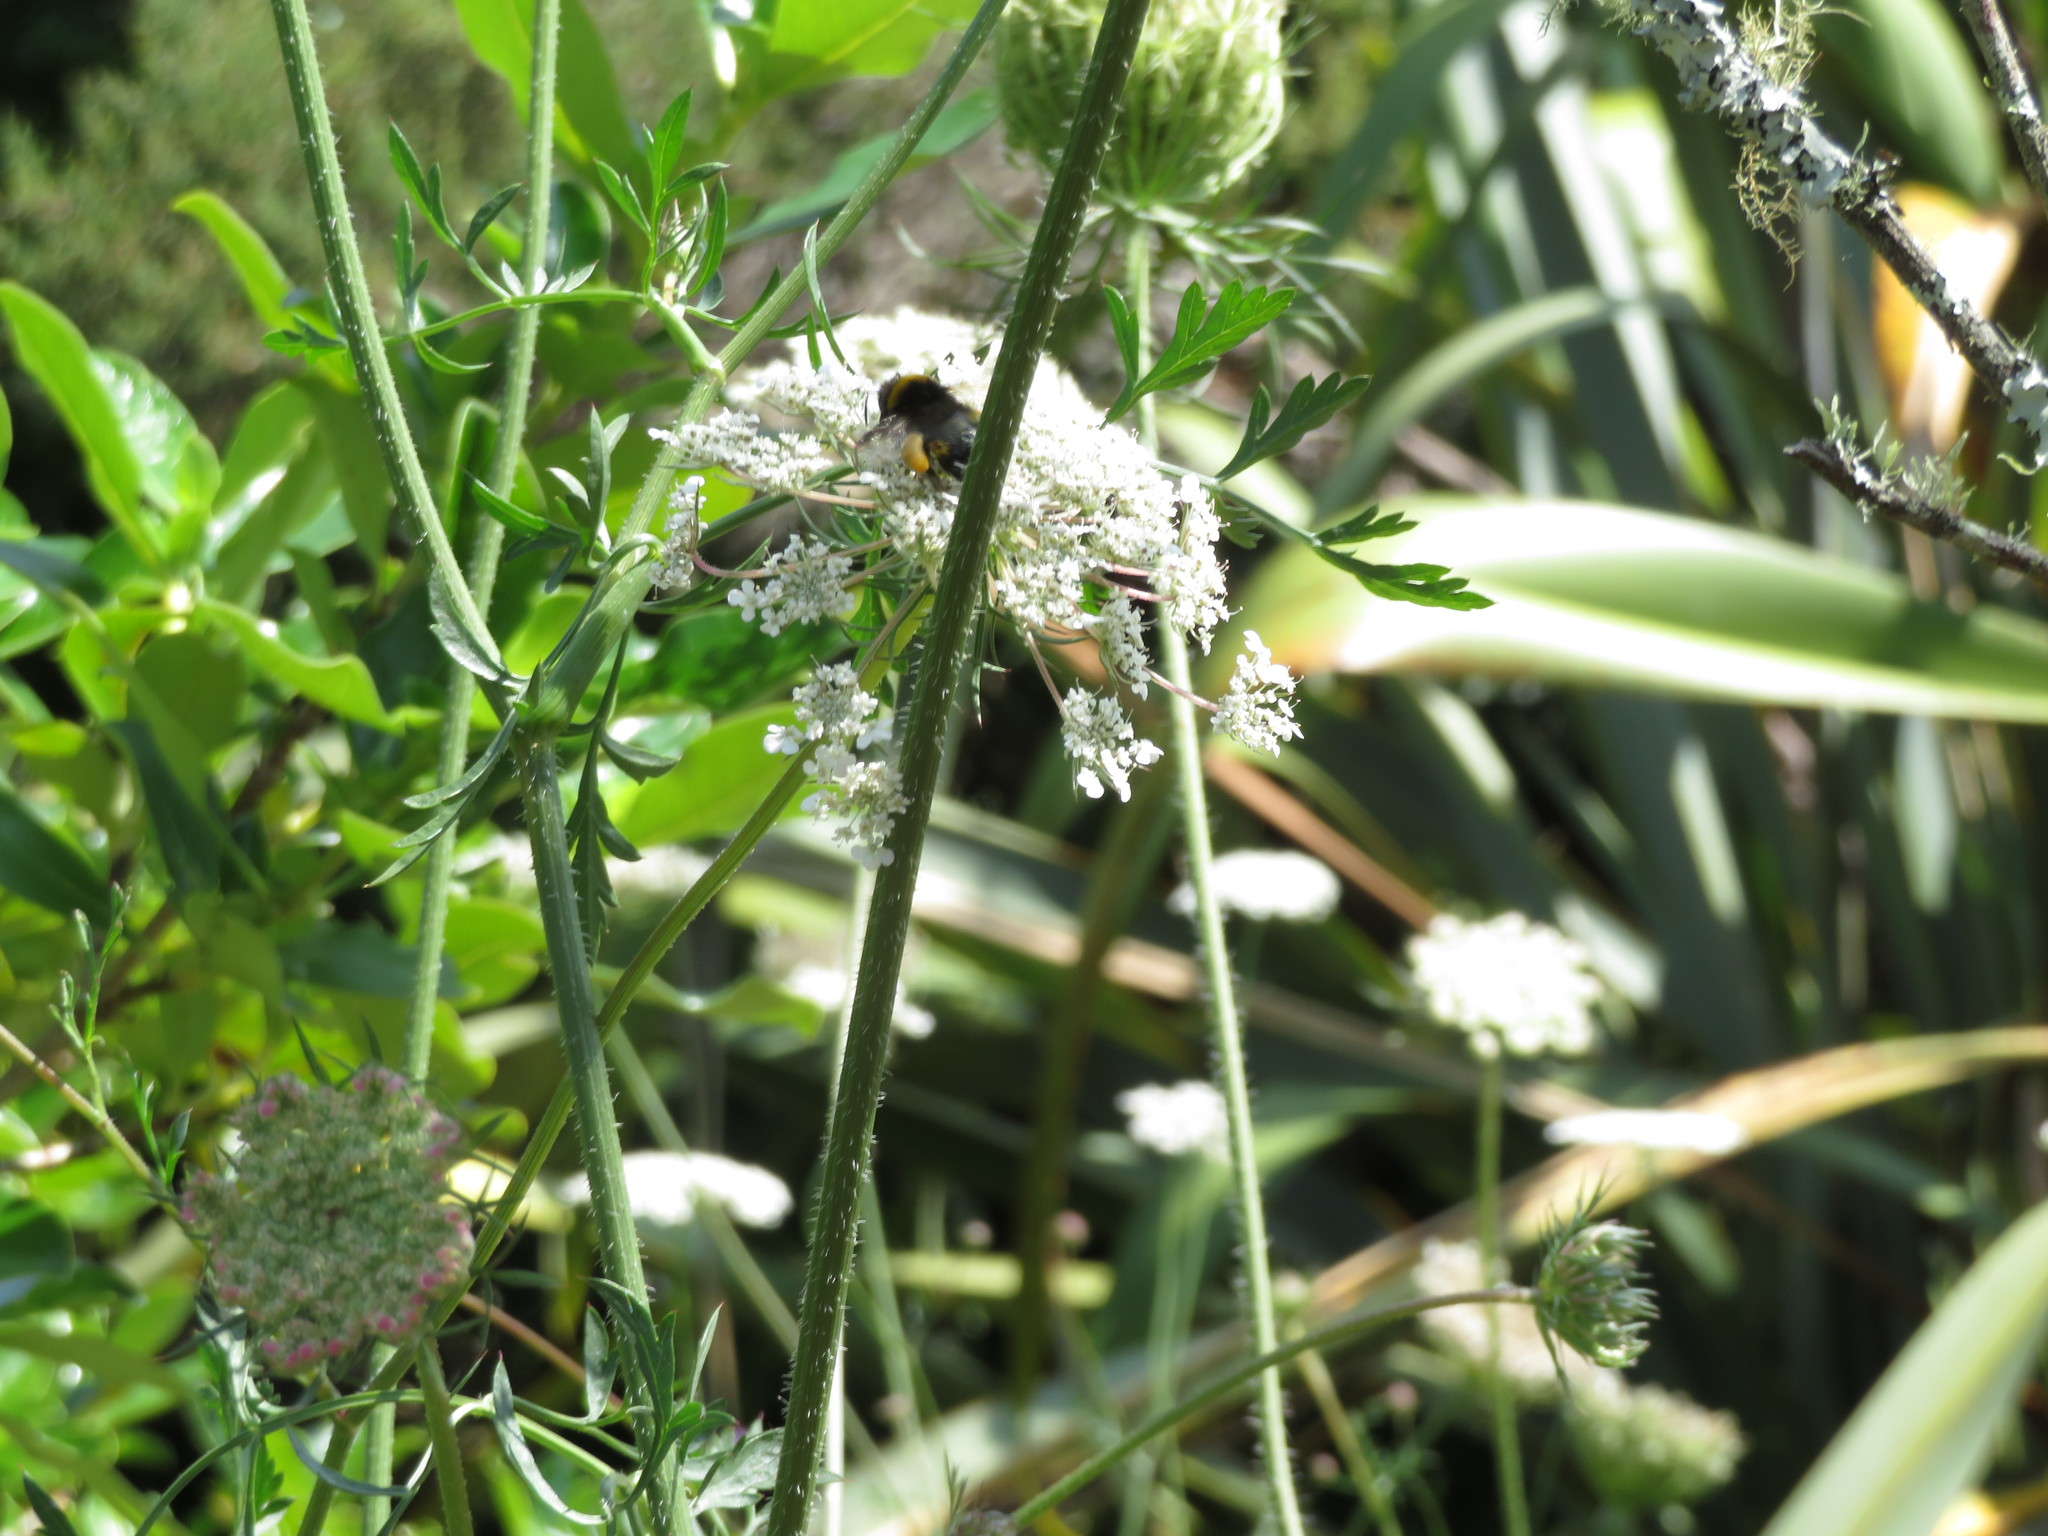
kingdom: Animalia
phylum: Arthropoda
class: Insecta
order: Hymenoptera
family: Apidae
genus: Bombus
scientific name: Bombus terrestris
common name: Buff-tailed bumblebee
